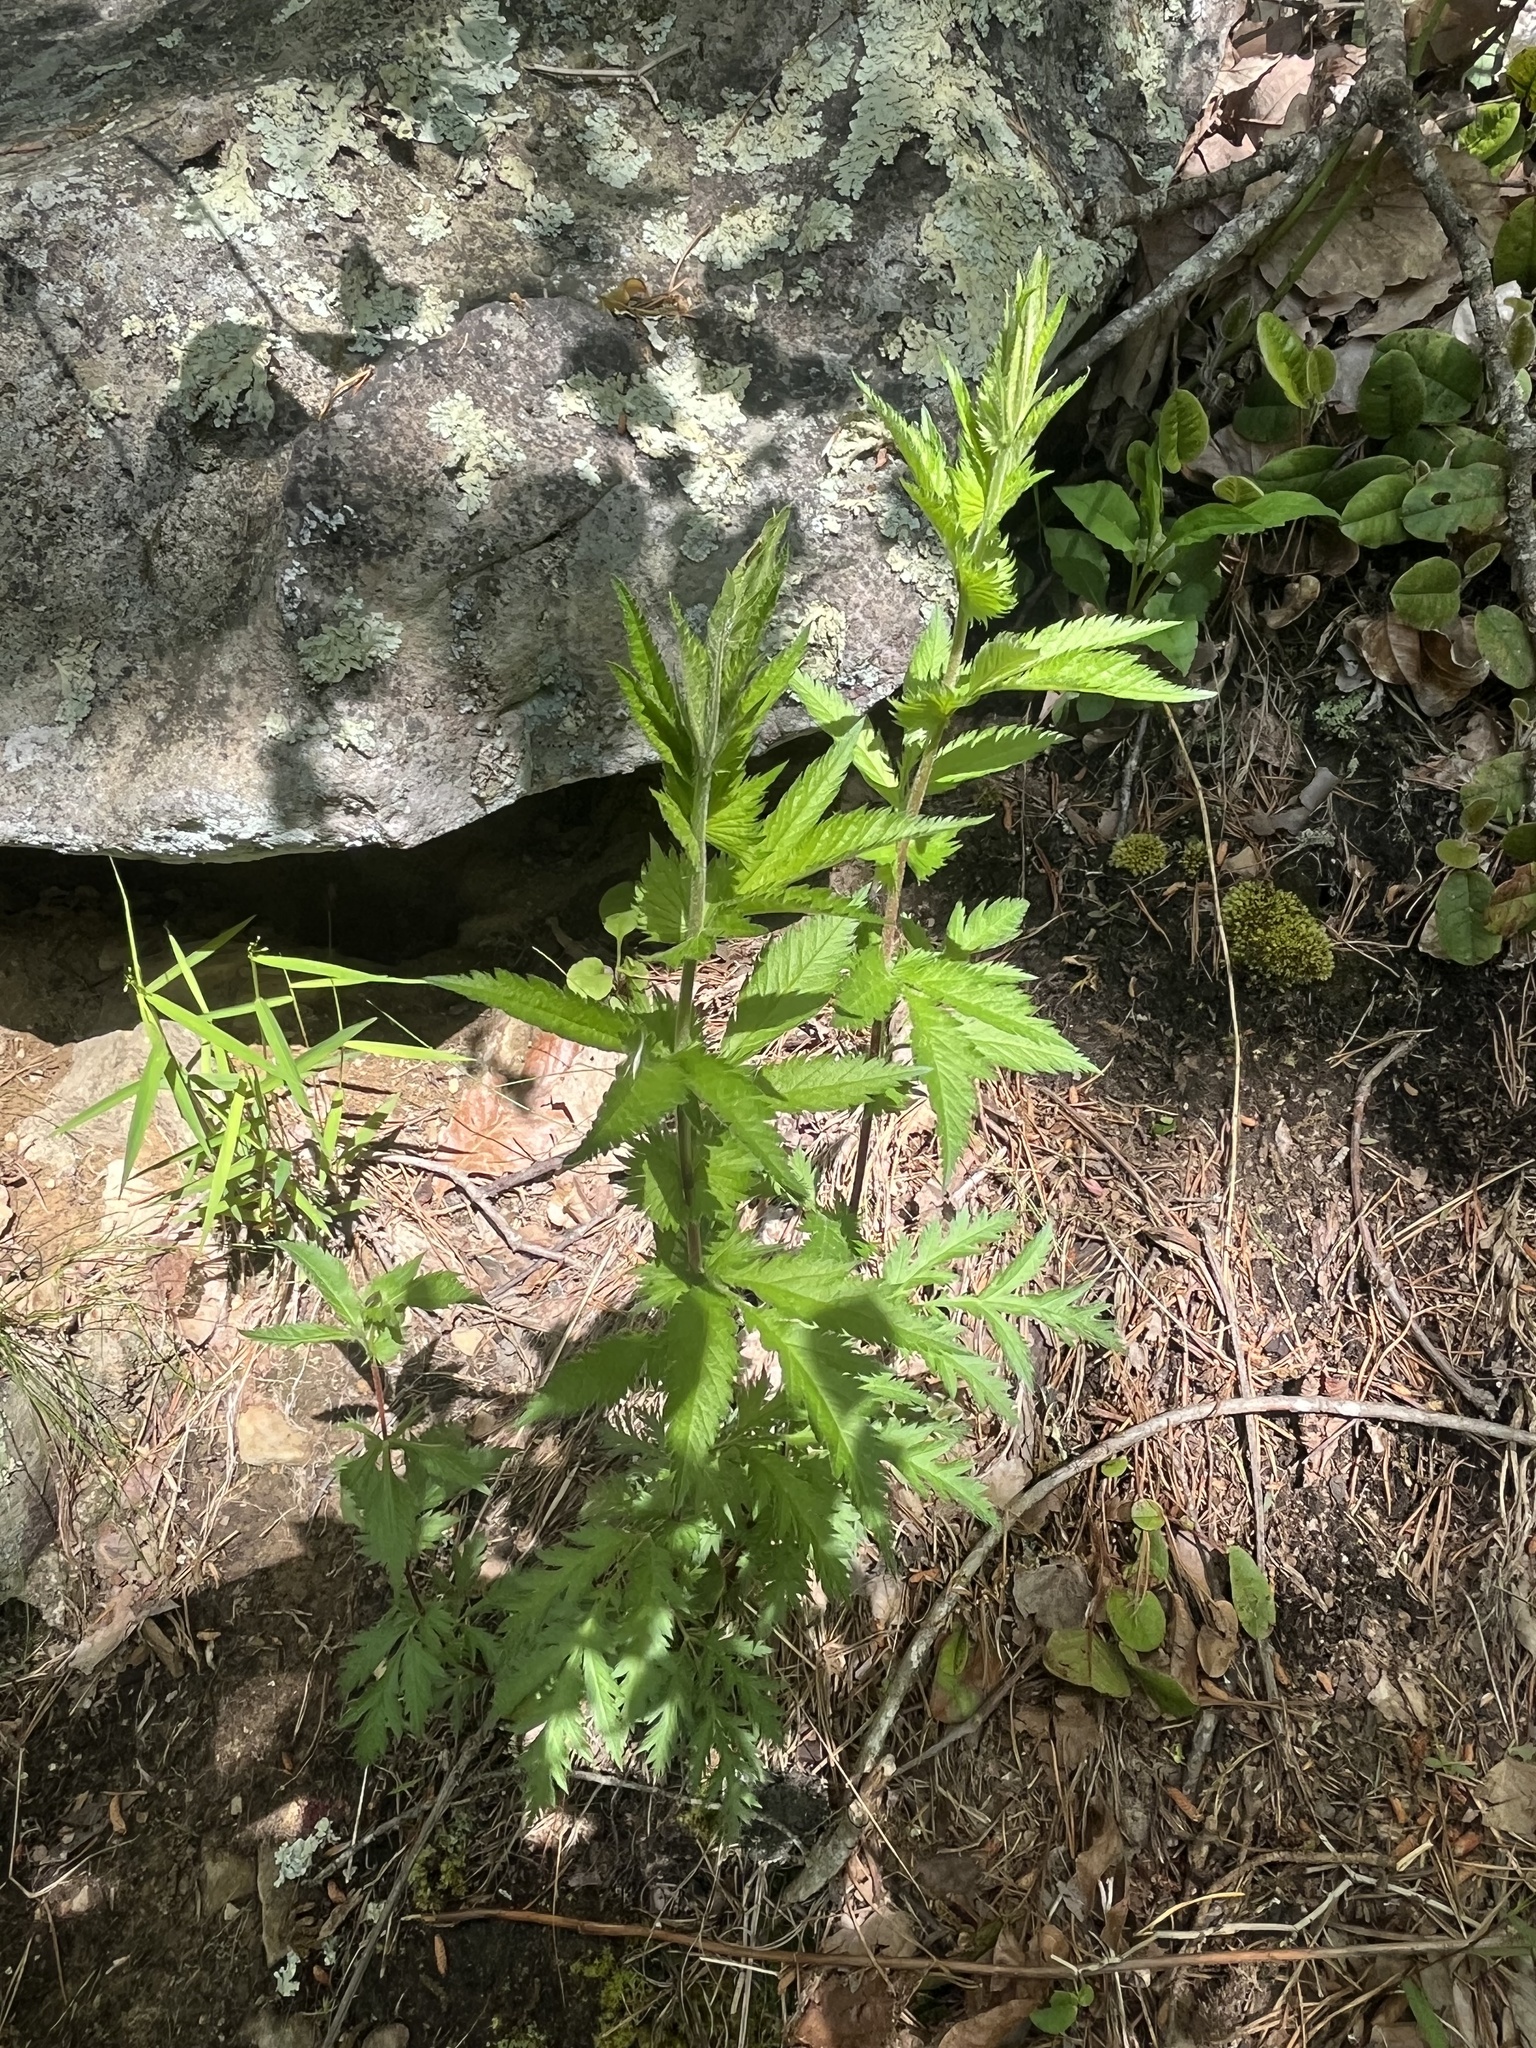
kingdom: Plantae
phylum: Tracheophyta
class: Magnoliopsida
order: Rosales
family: Rosaceae
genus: Gillenia
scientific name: Gillenia stipulata
